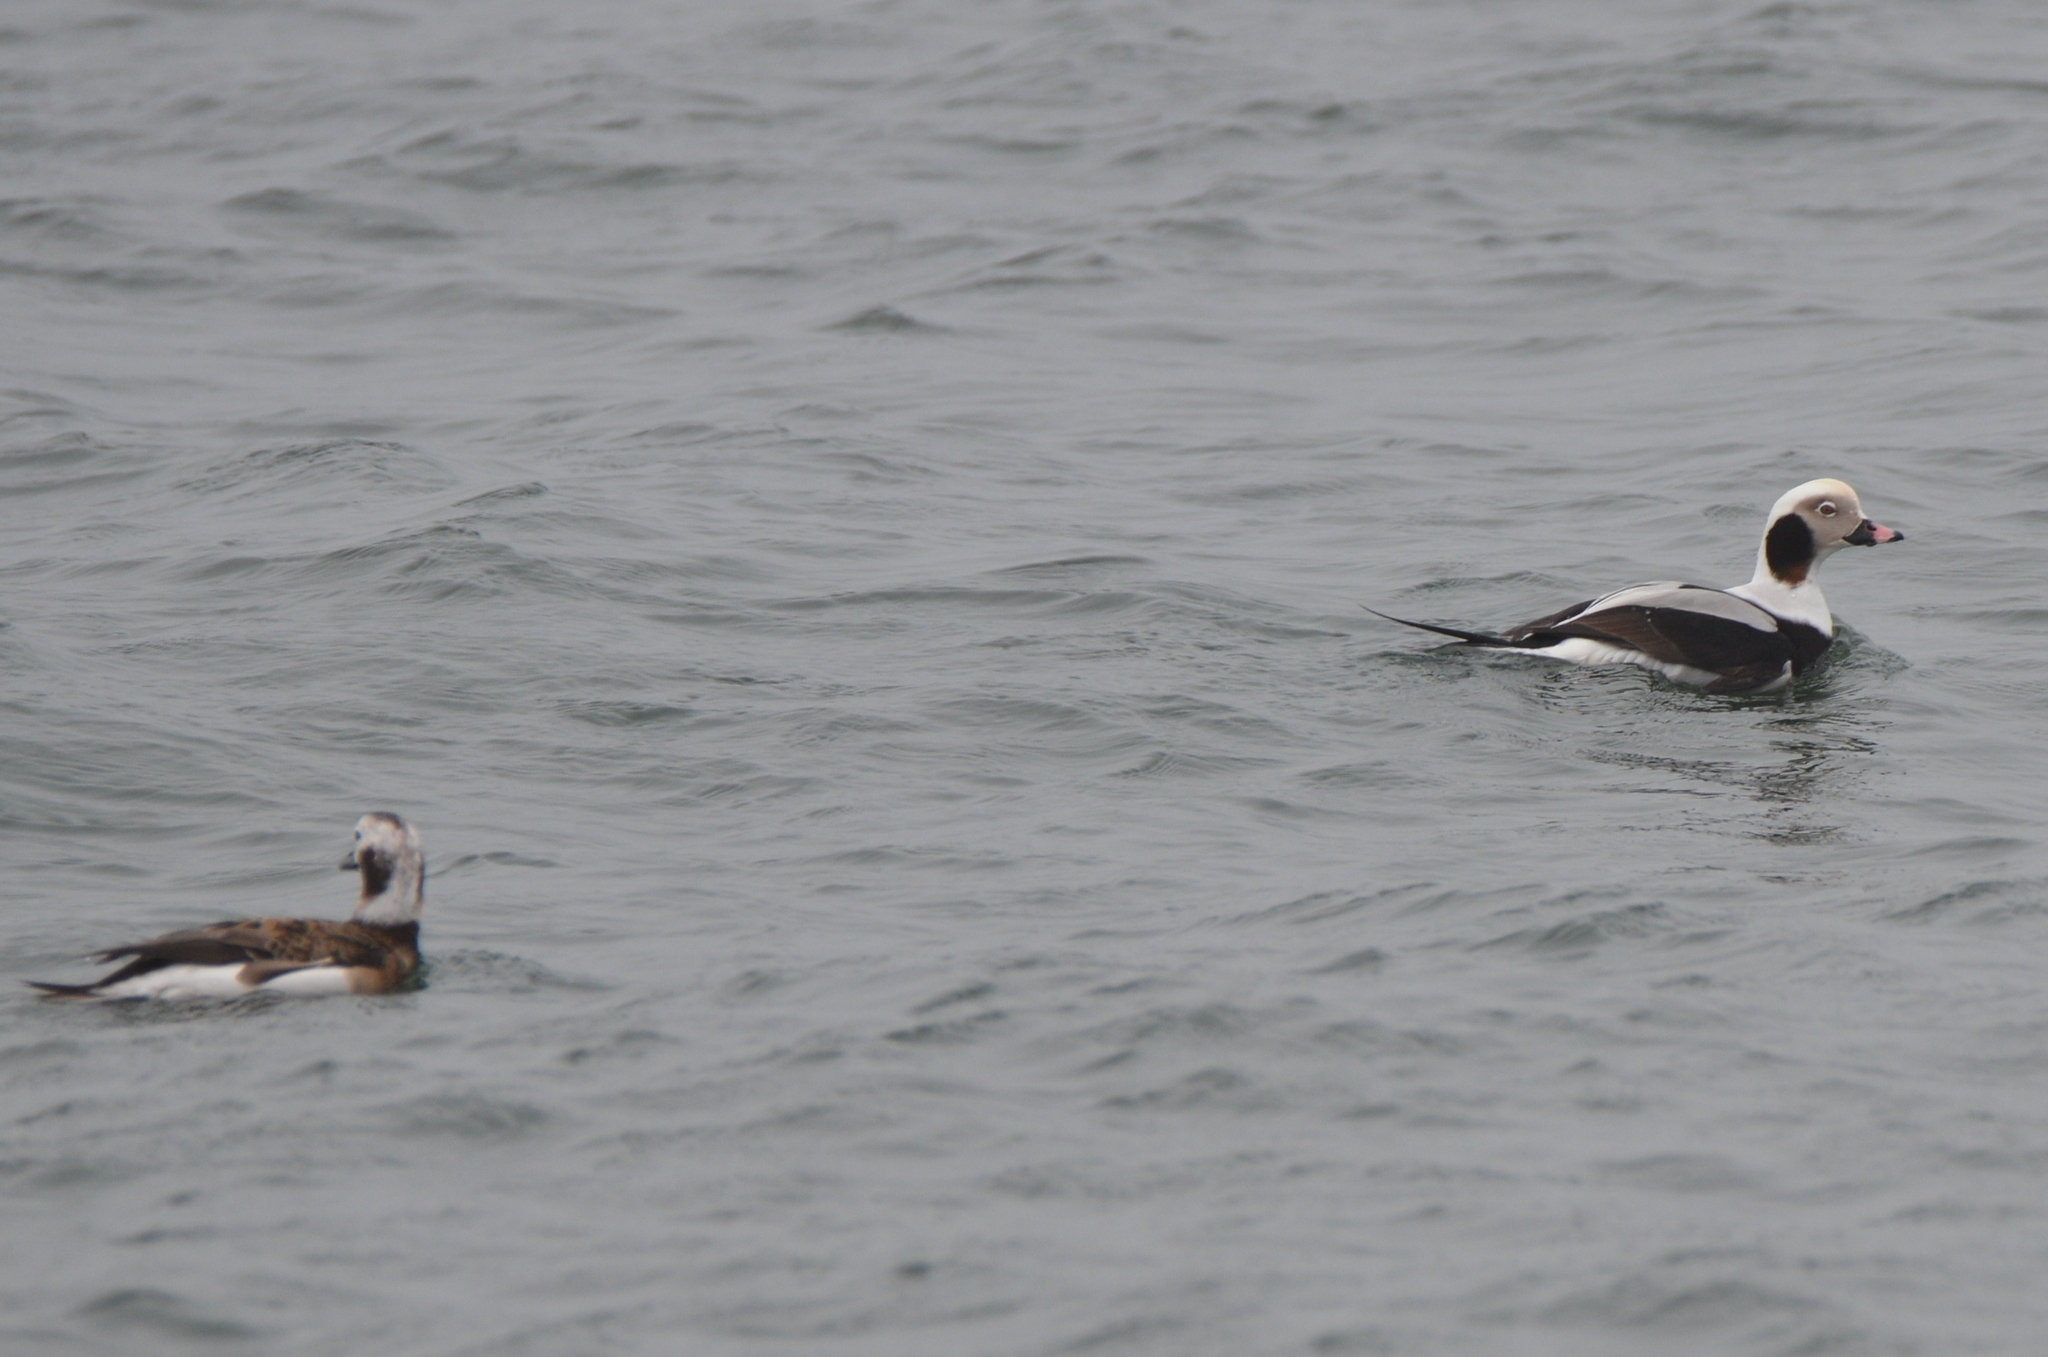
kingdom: Animalia
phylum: Chordata
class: Aves
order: Anseriformes
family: Anatidae
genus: Clangula
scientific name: Clangula hyemalis
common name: Long-tailed duck
